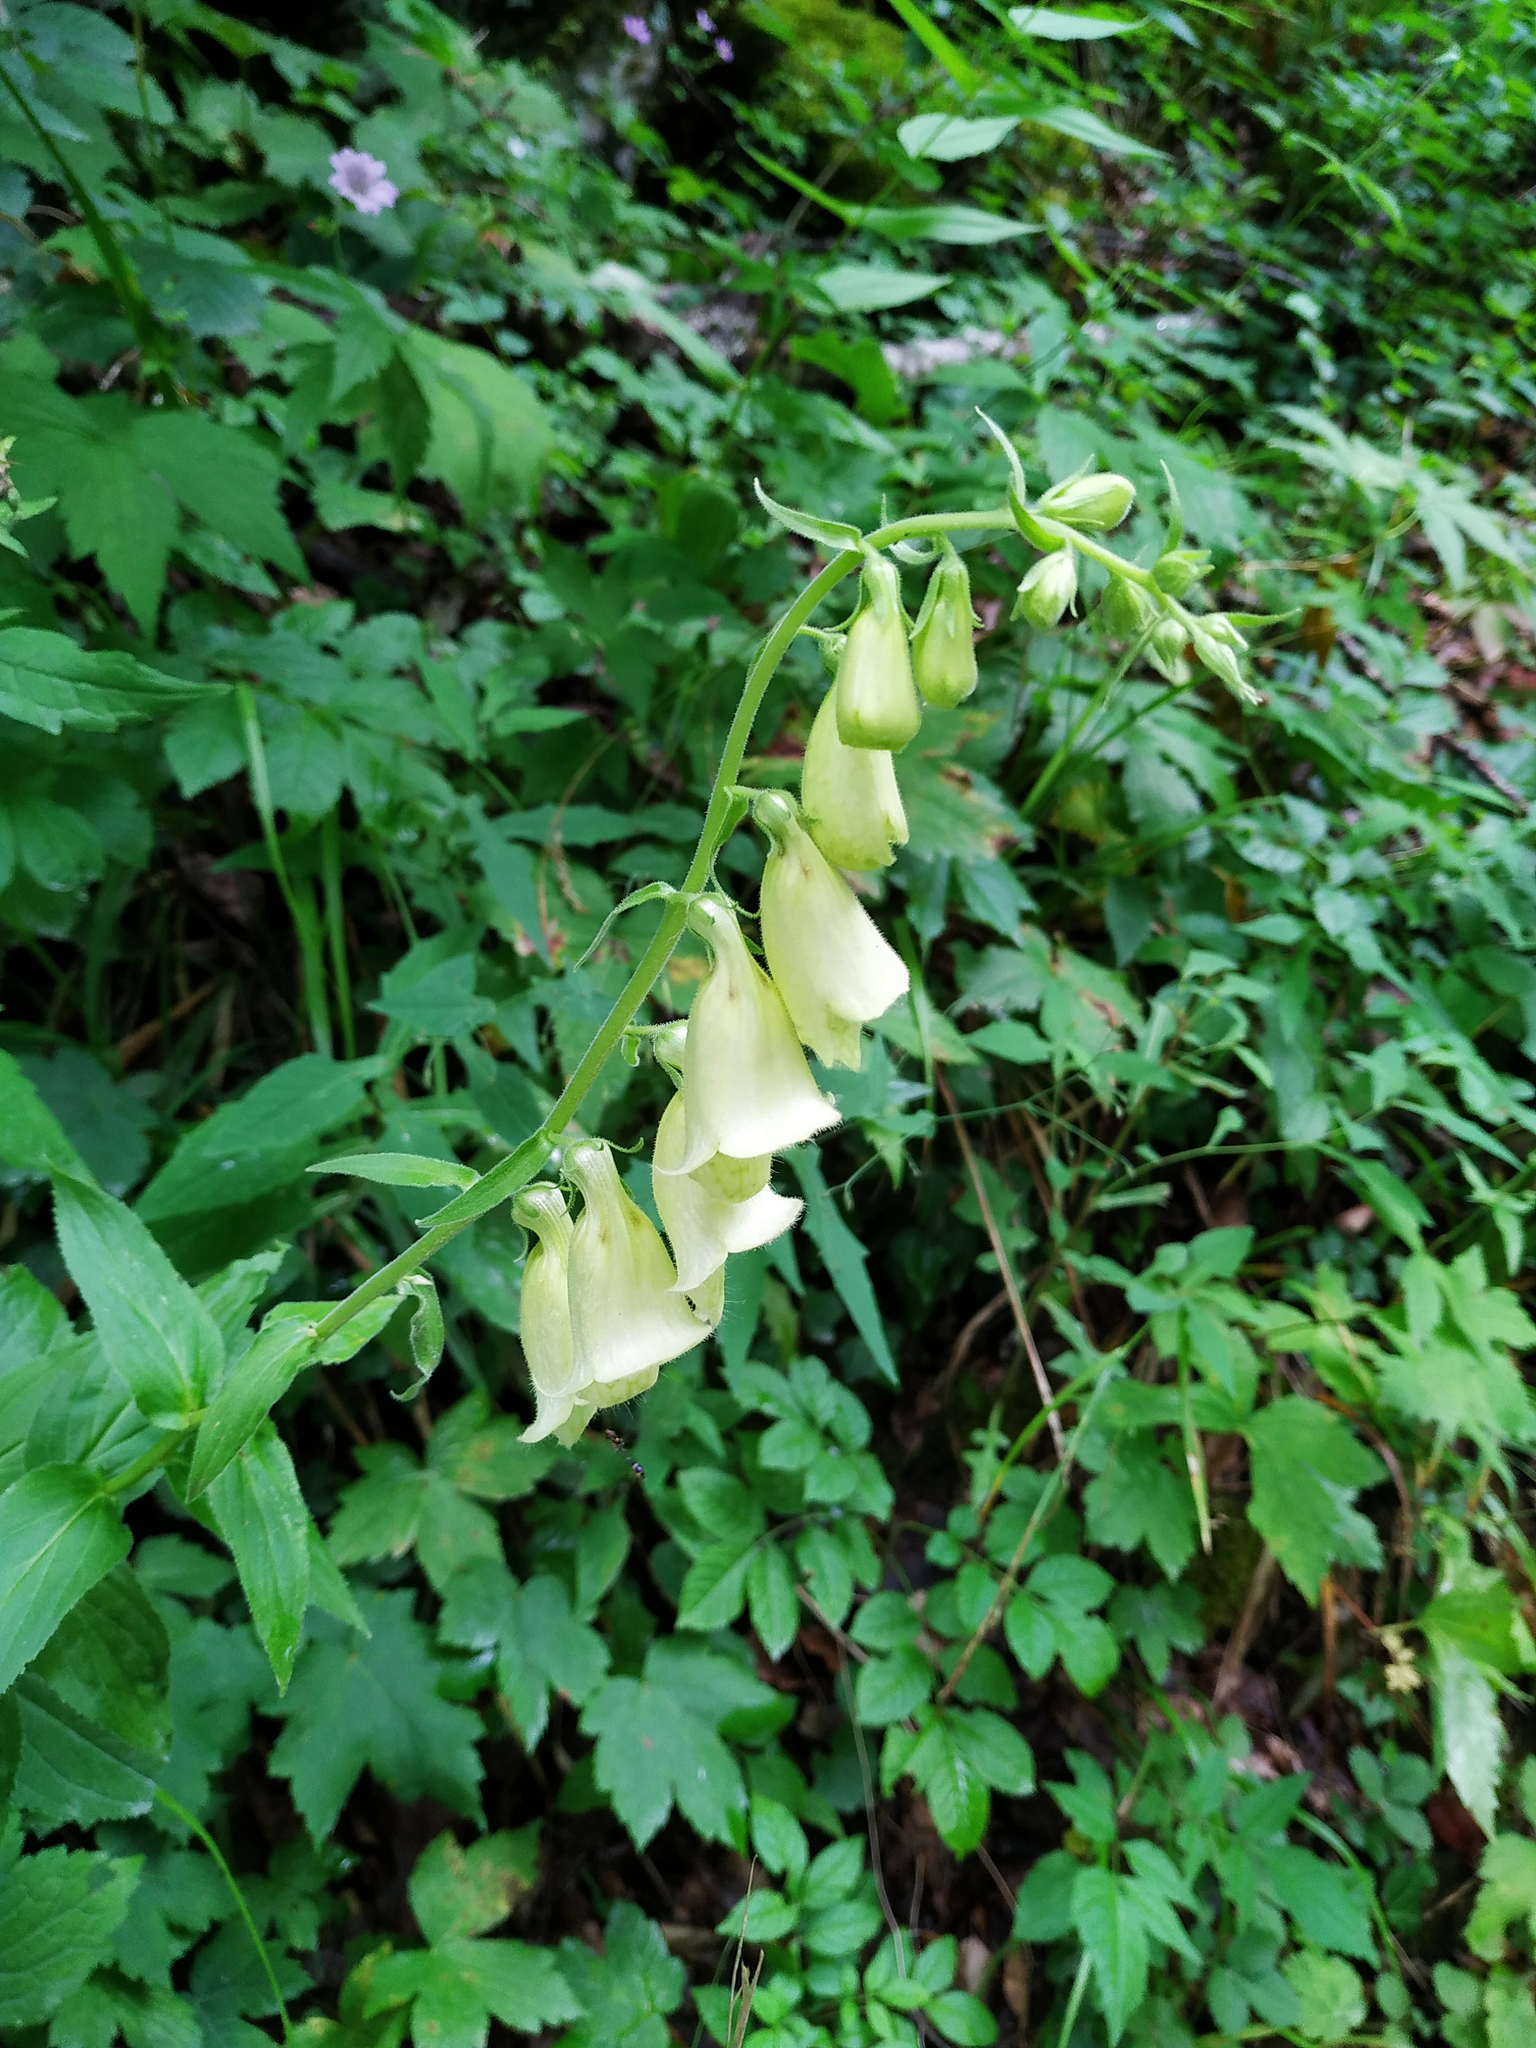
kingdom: Plantae
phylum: Tracheophyta
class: Magnoliopsida
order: Lamiales
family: Plantaginaceae
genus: Digitalis
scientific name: Digitalis grandiflora
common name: Yellow foxglove
